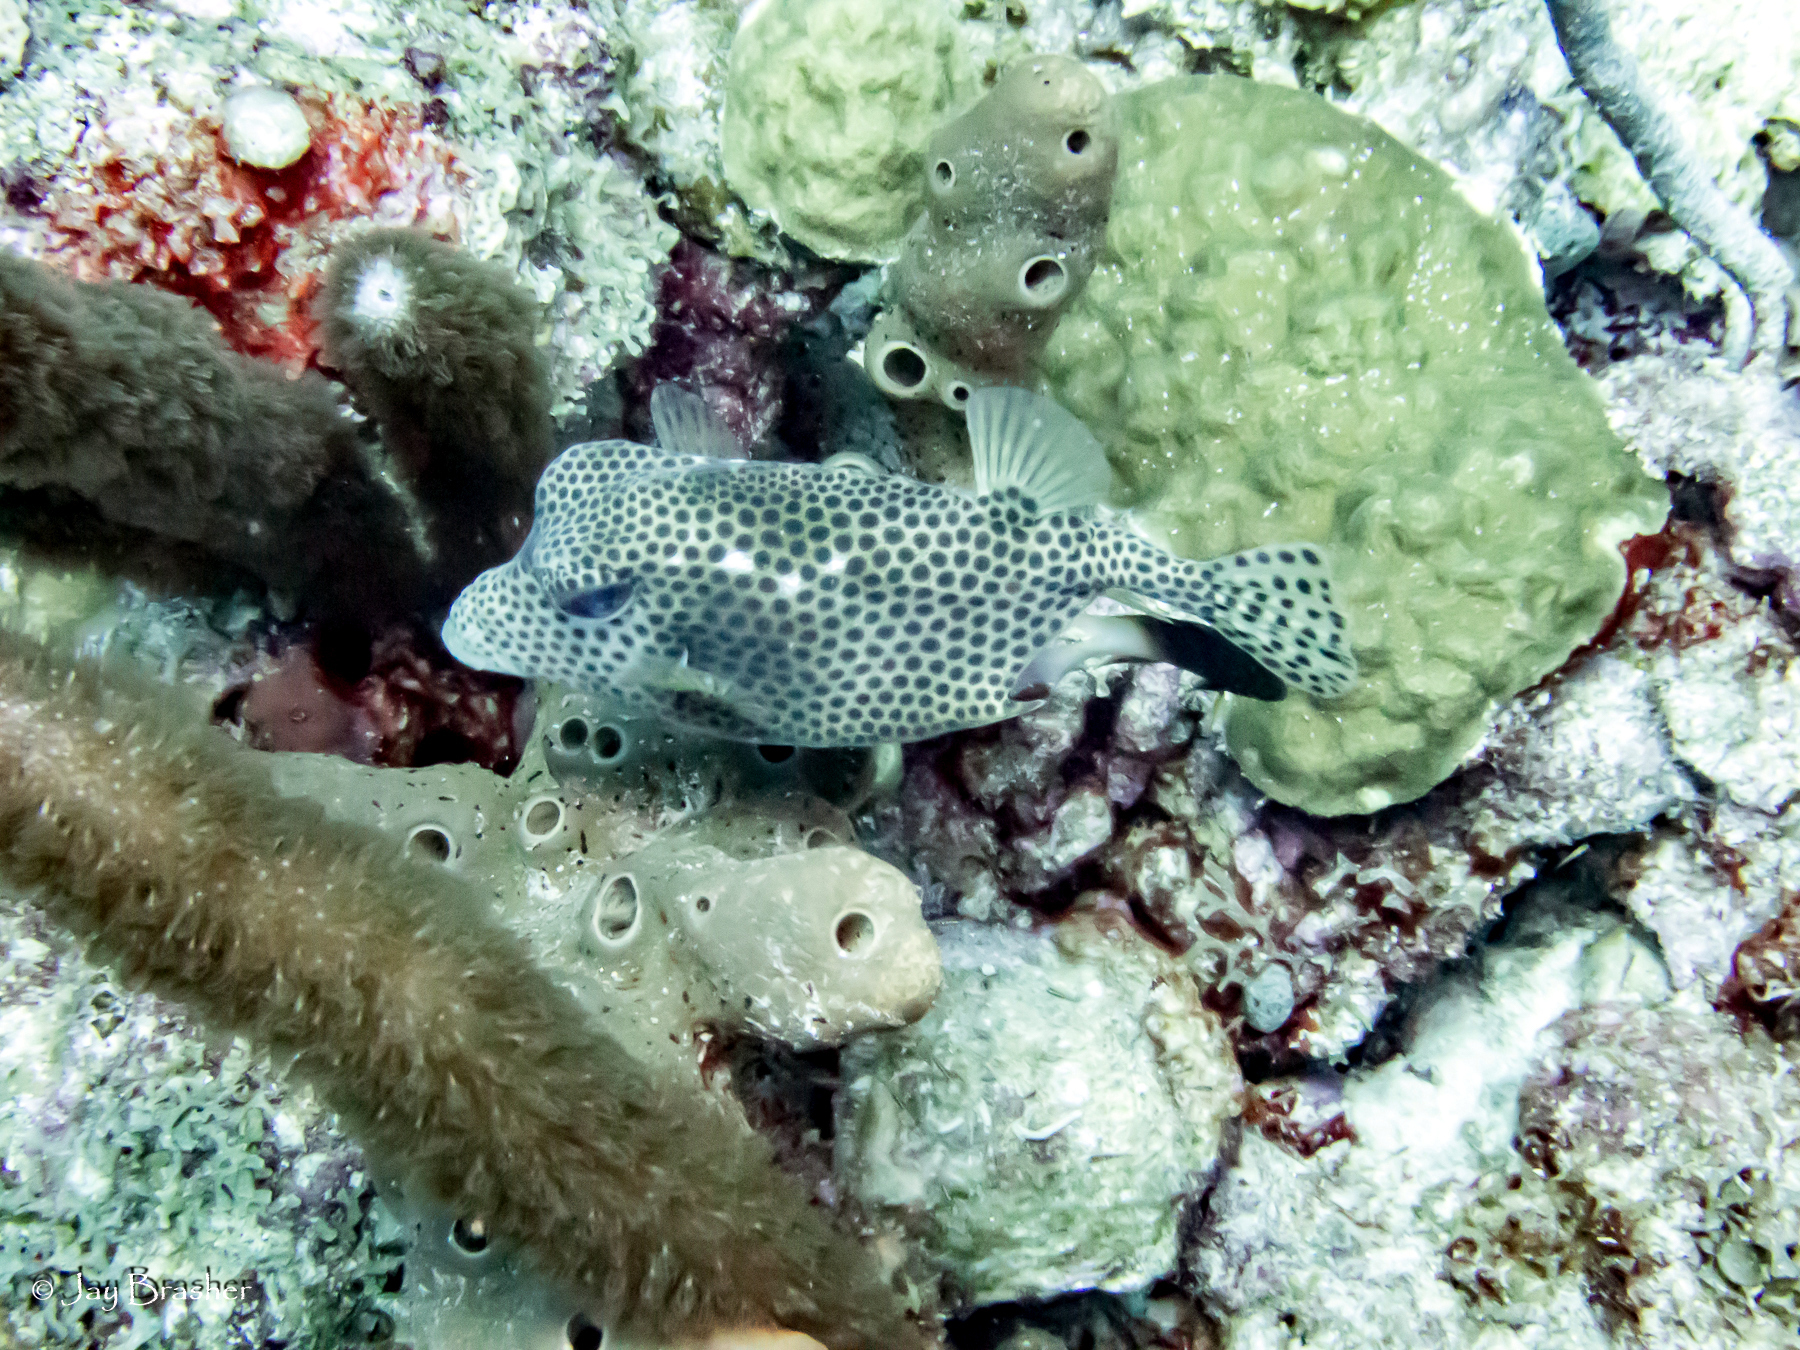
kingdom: Animalia
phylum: Chordata
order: Tetraodontiformes
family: Ostraciidae
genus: Lactophrys
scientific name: Lactophrys bicaudalis
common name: Spotted trunkfish
